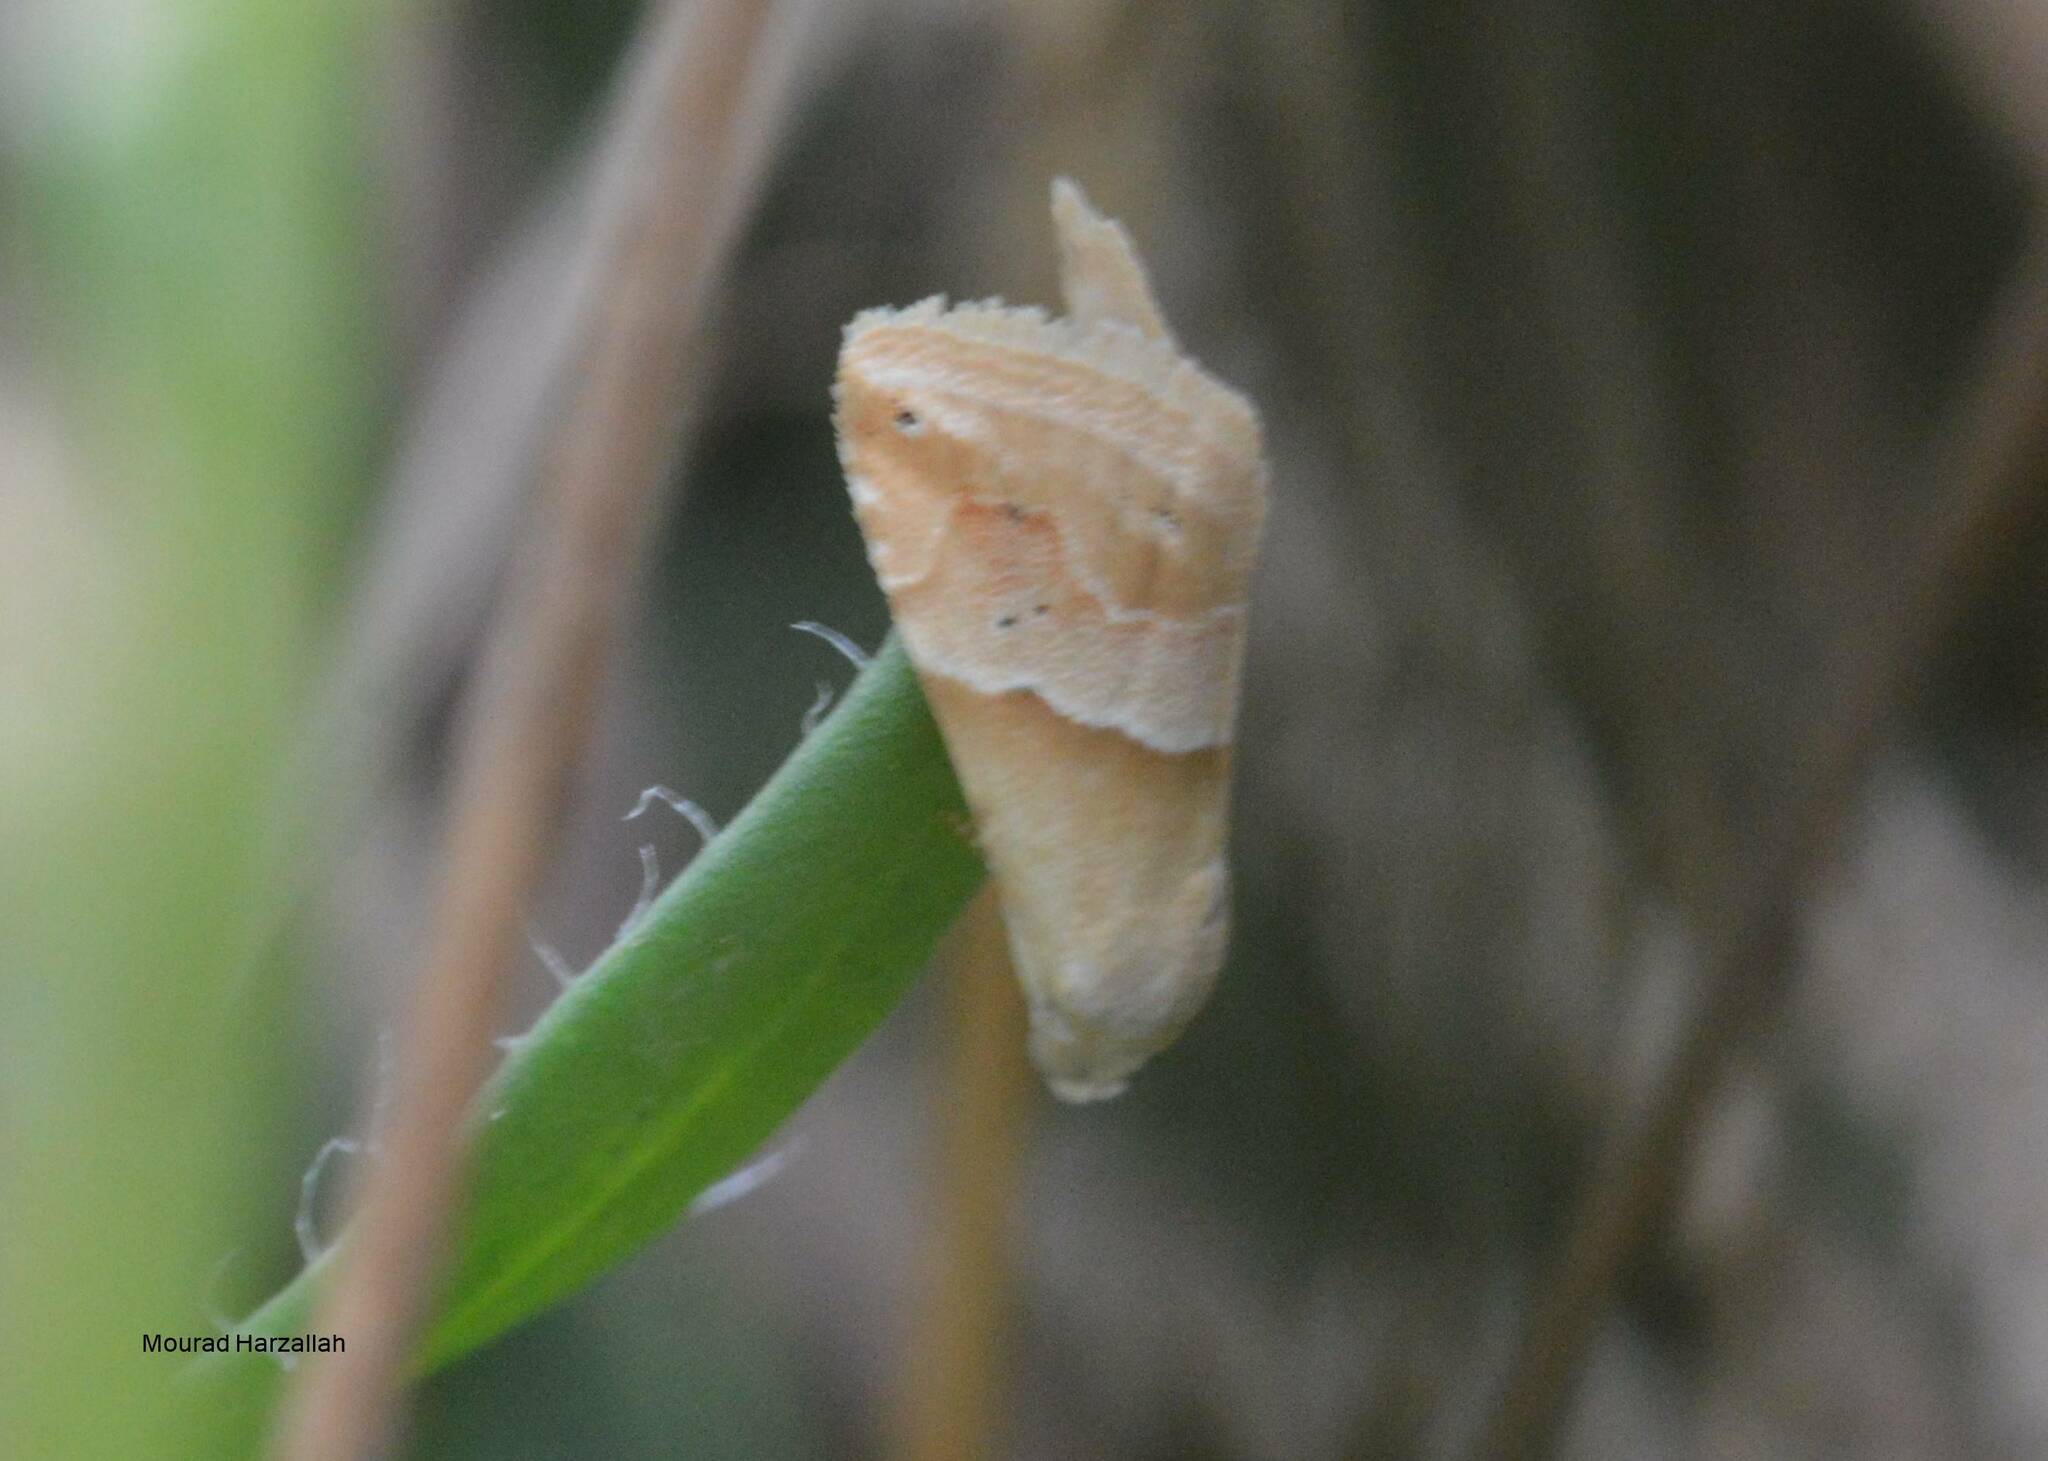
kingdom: Animalia
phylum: Arthropoda
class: Insecta
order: Lepidoptera
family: Noctuidae
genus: Eublemma
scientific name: Eublemma parva
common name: Small marbled
